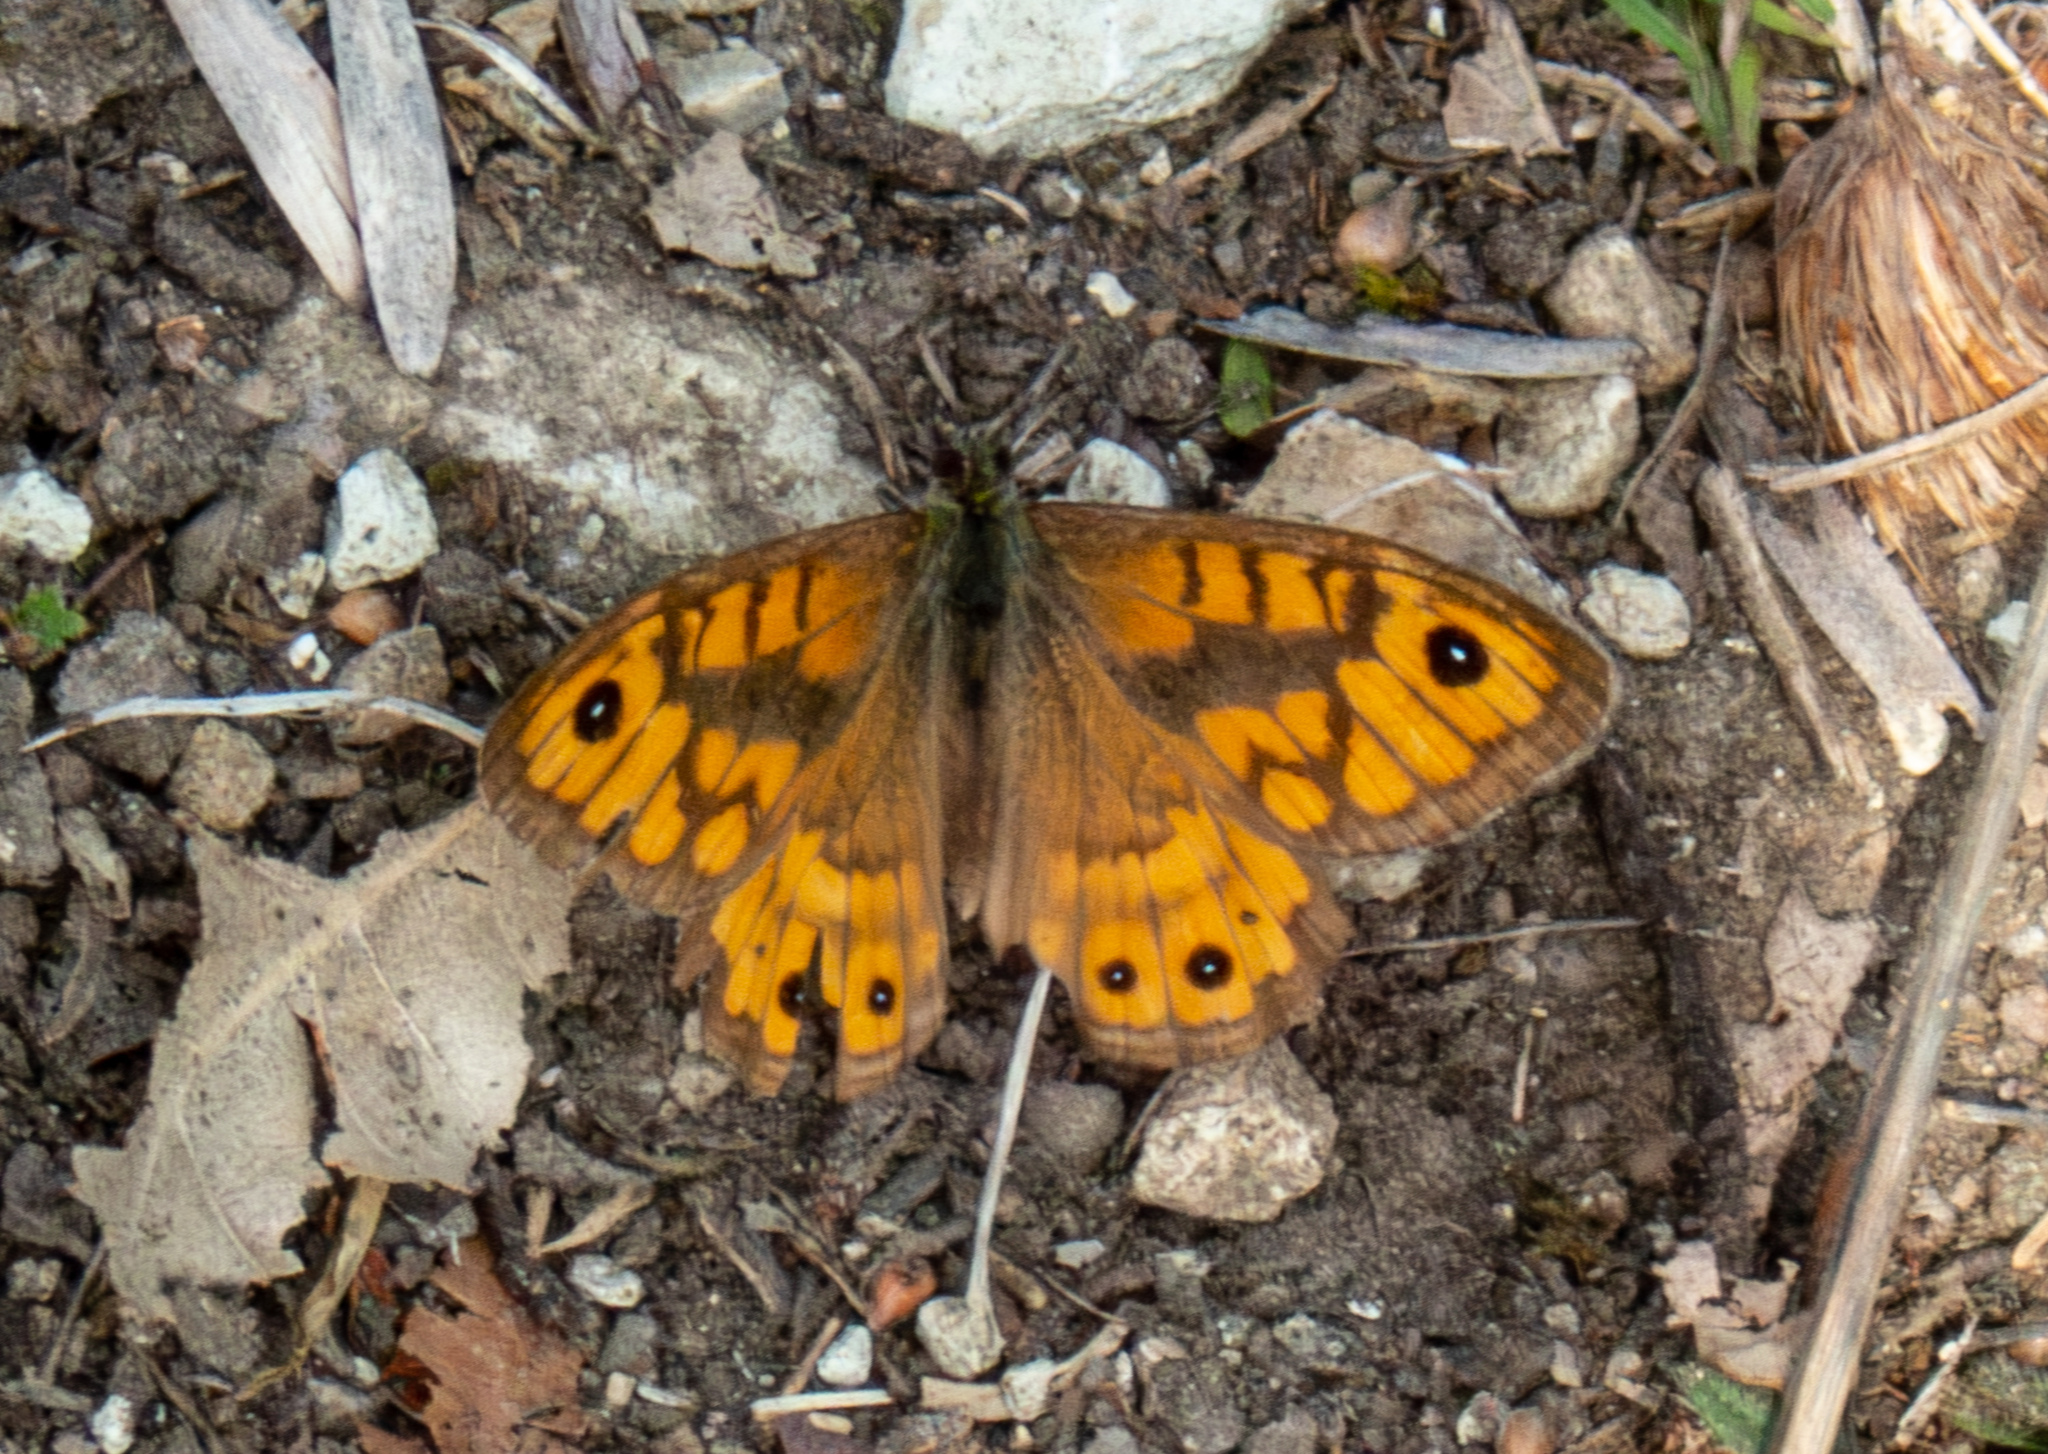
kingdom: Animalia
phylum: Arthropoda
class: Insecta
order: Lepidoptera
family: Nymphalidae
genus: Pararge
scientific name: Pararge Lasiommata megera
